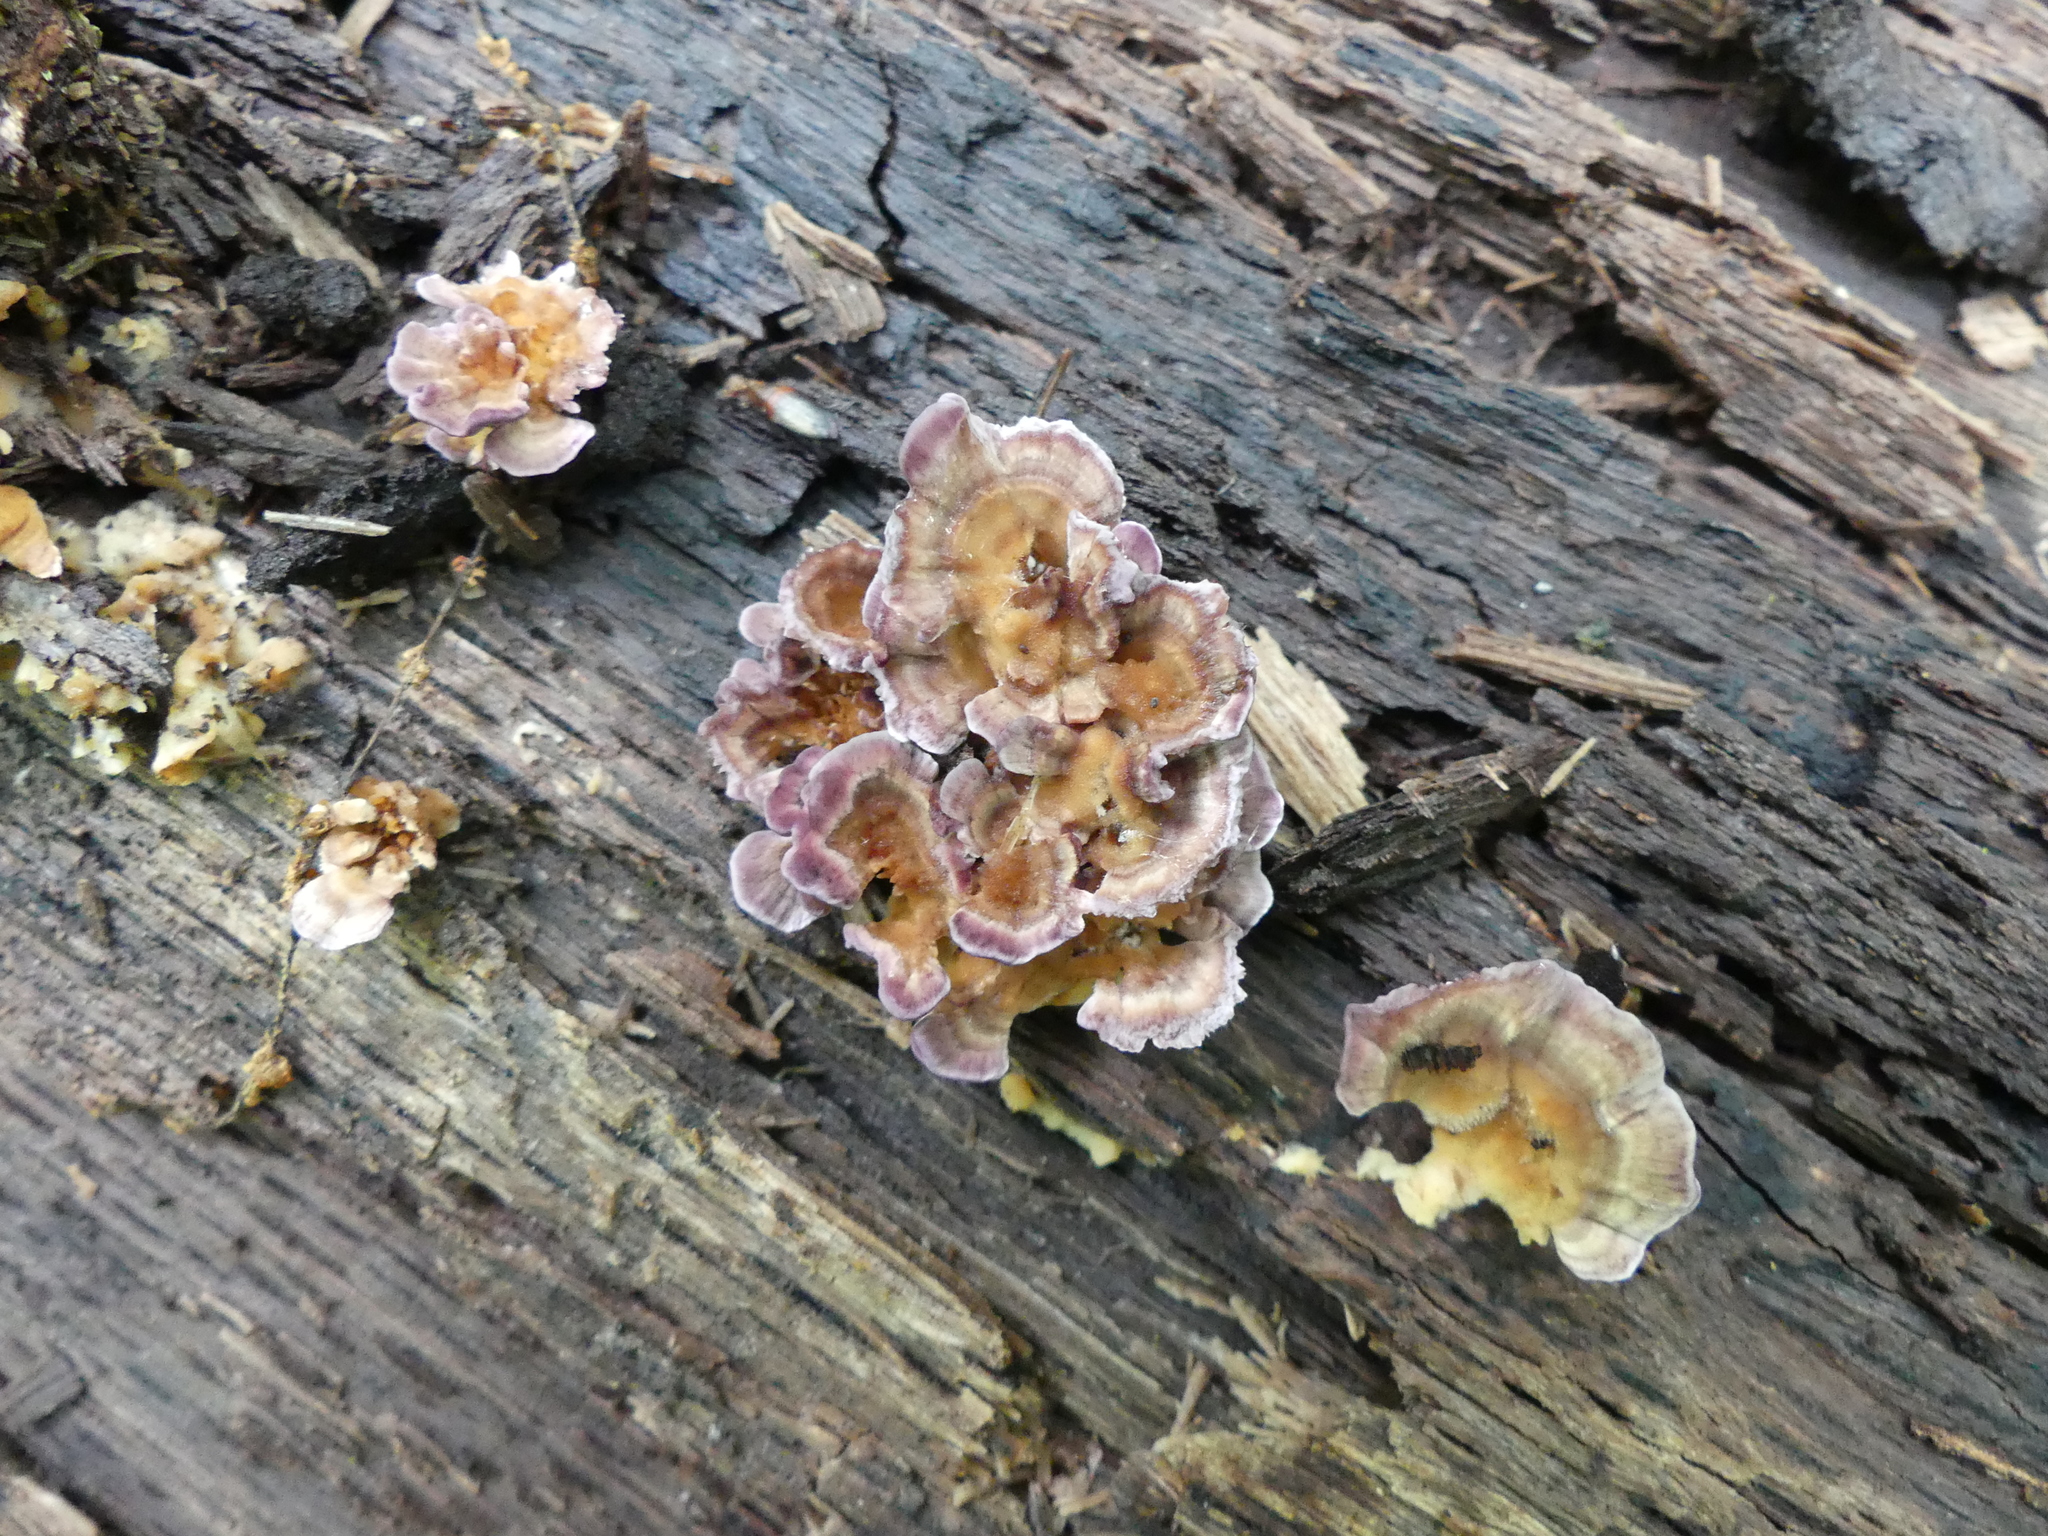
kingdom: Fungi
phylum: Basidiomycota
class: Agaricomycetes
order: Hymenochaetales
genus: Trichaptum
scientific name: Trichaptum biforme
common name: Violet-toothed polypore
